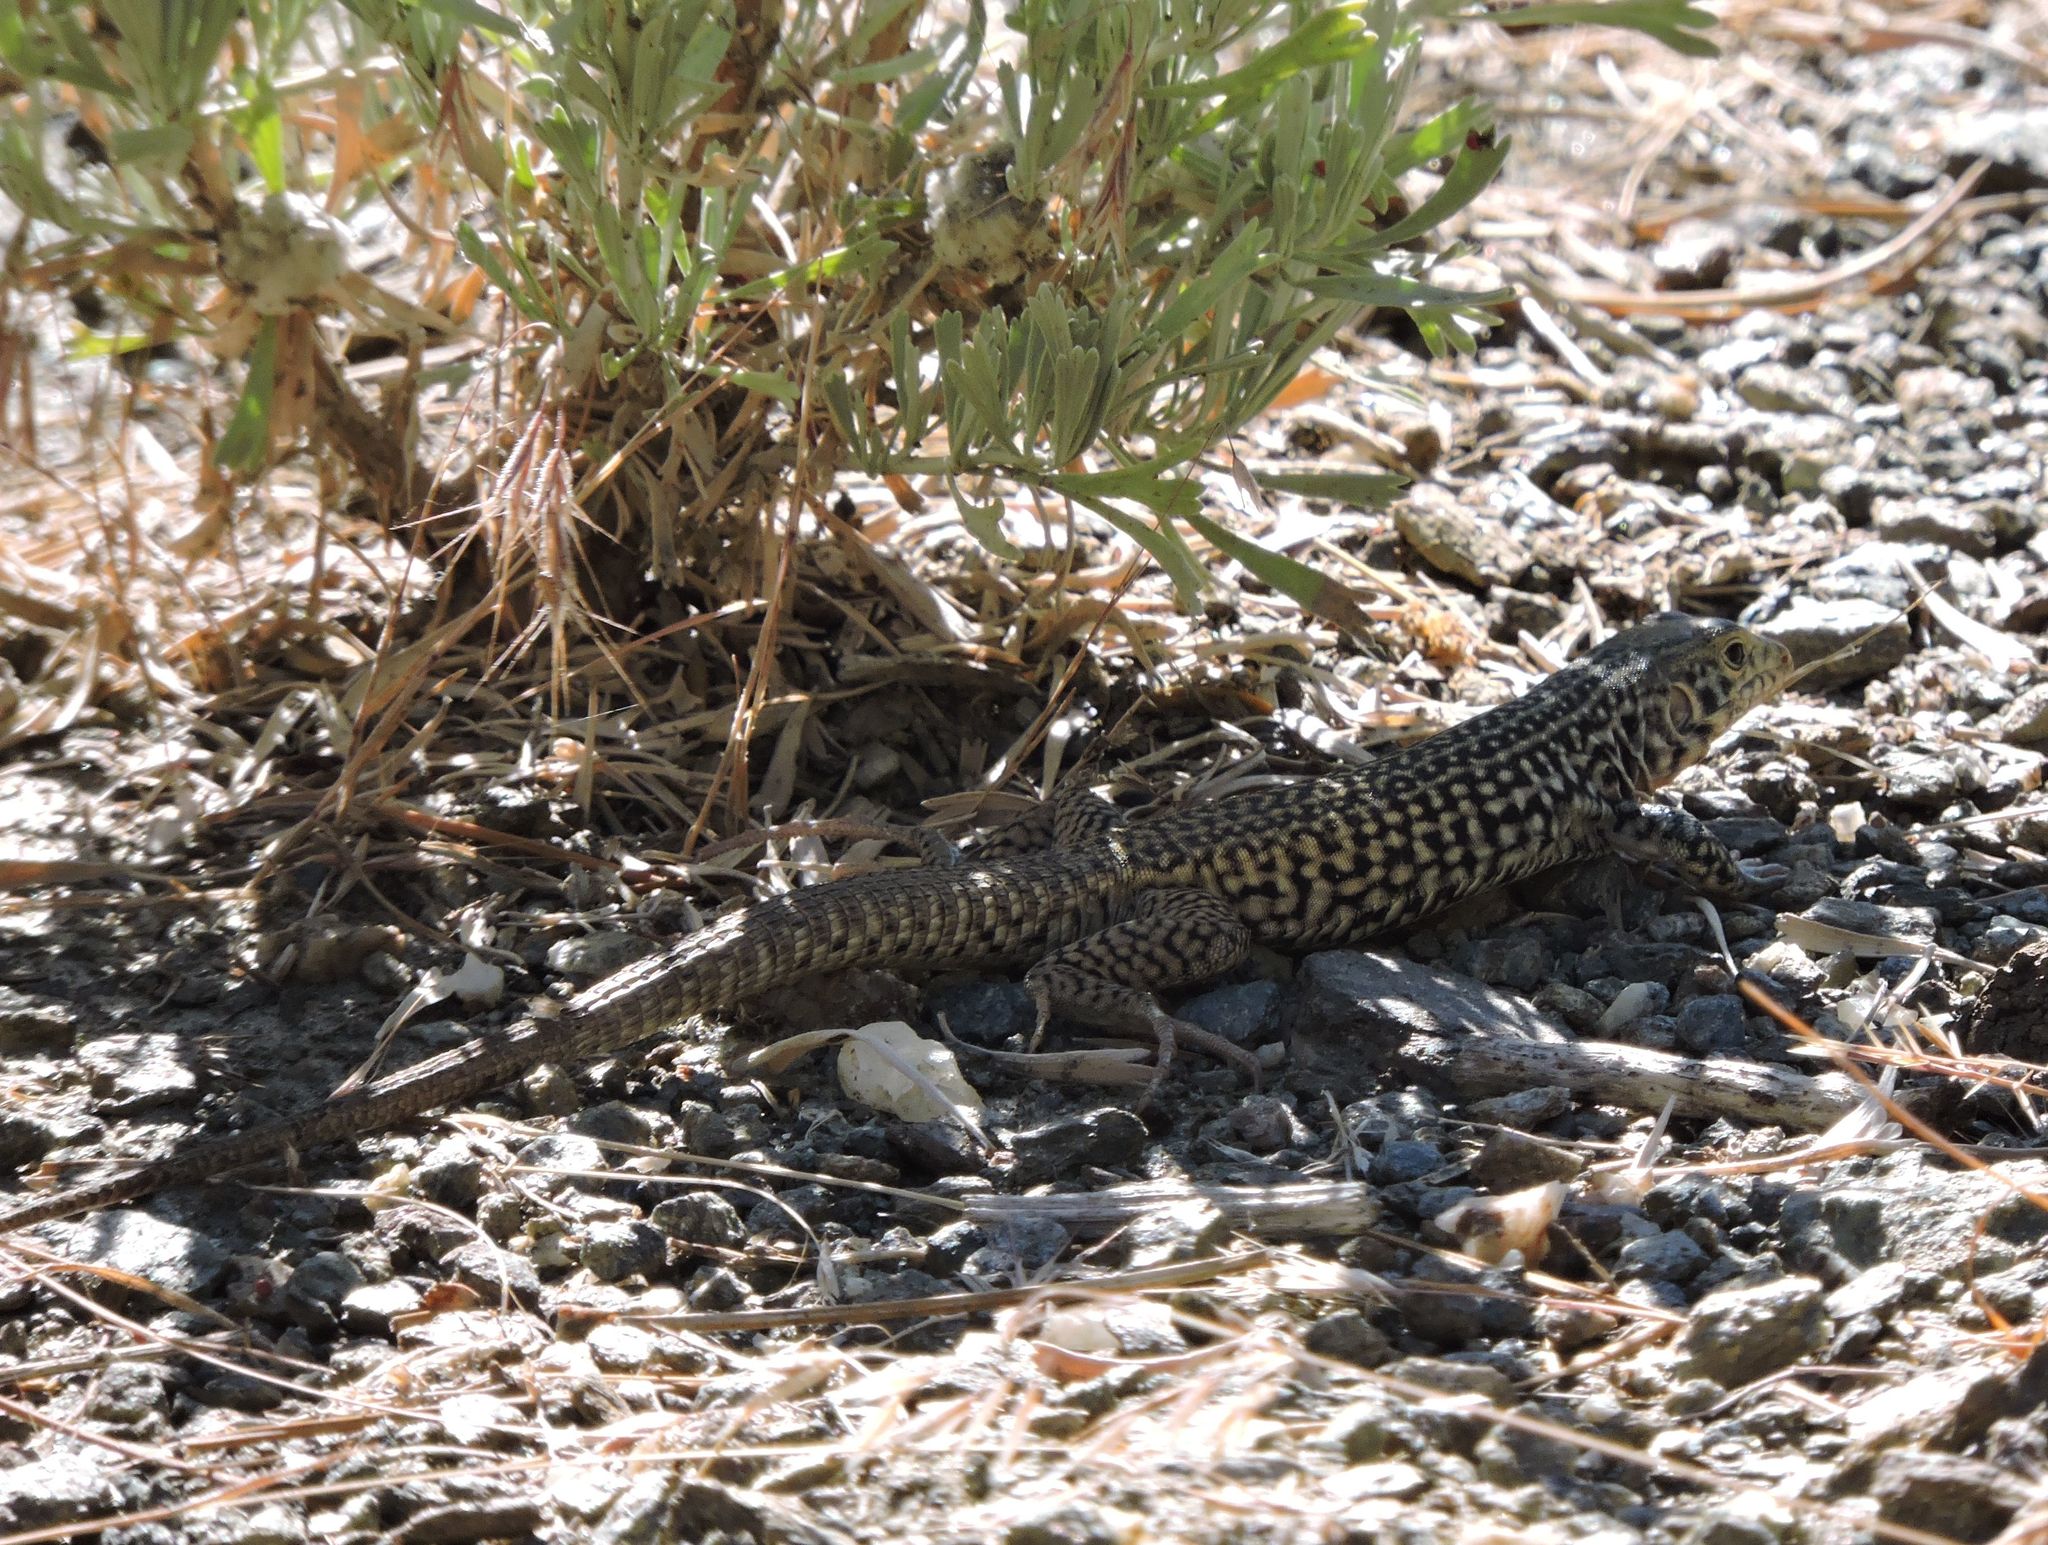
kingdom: Animalia
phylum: Chordata
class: Squamata
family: Teiidae
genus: Aspidoscelis
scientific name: Aspidoscelis tigris
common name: Tiger whiptail
